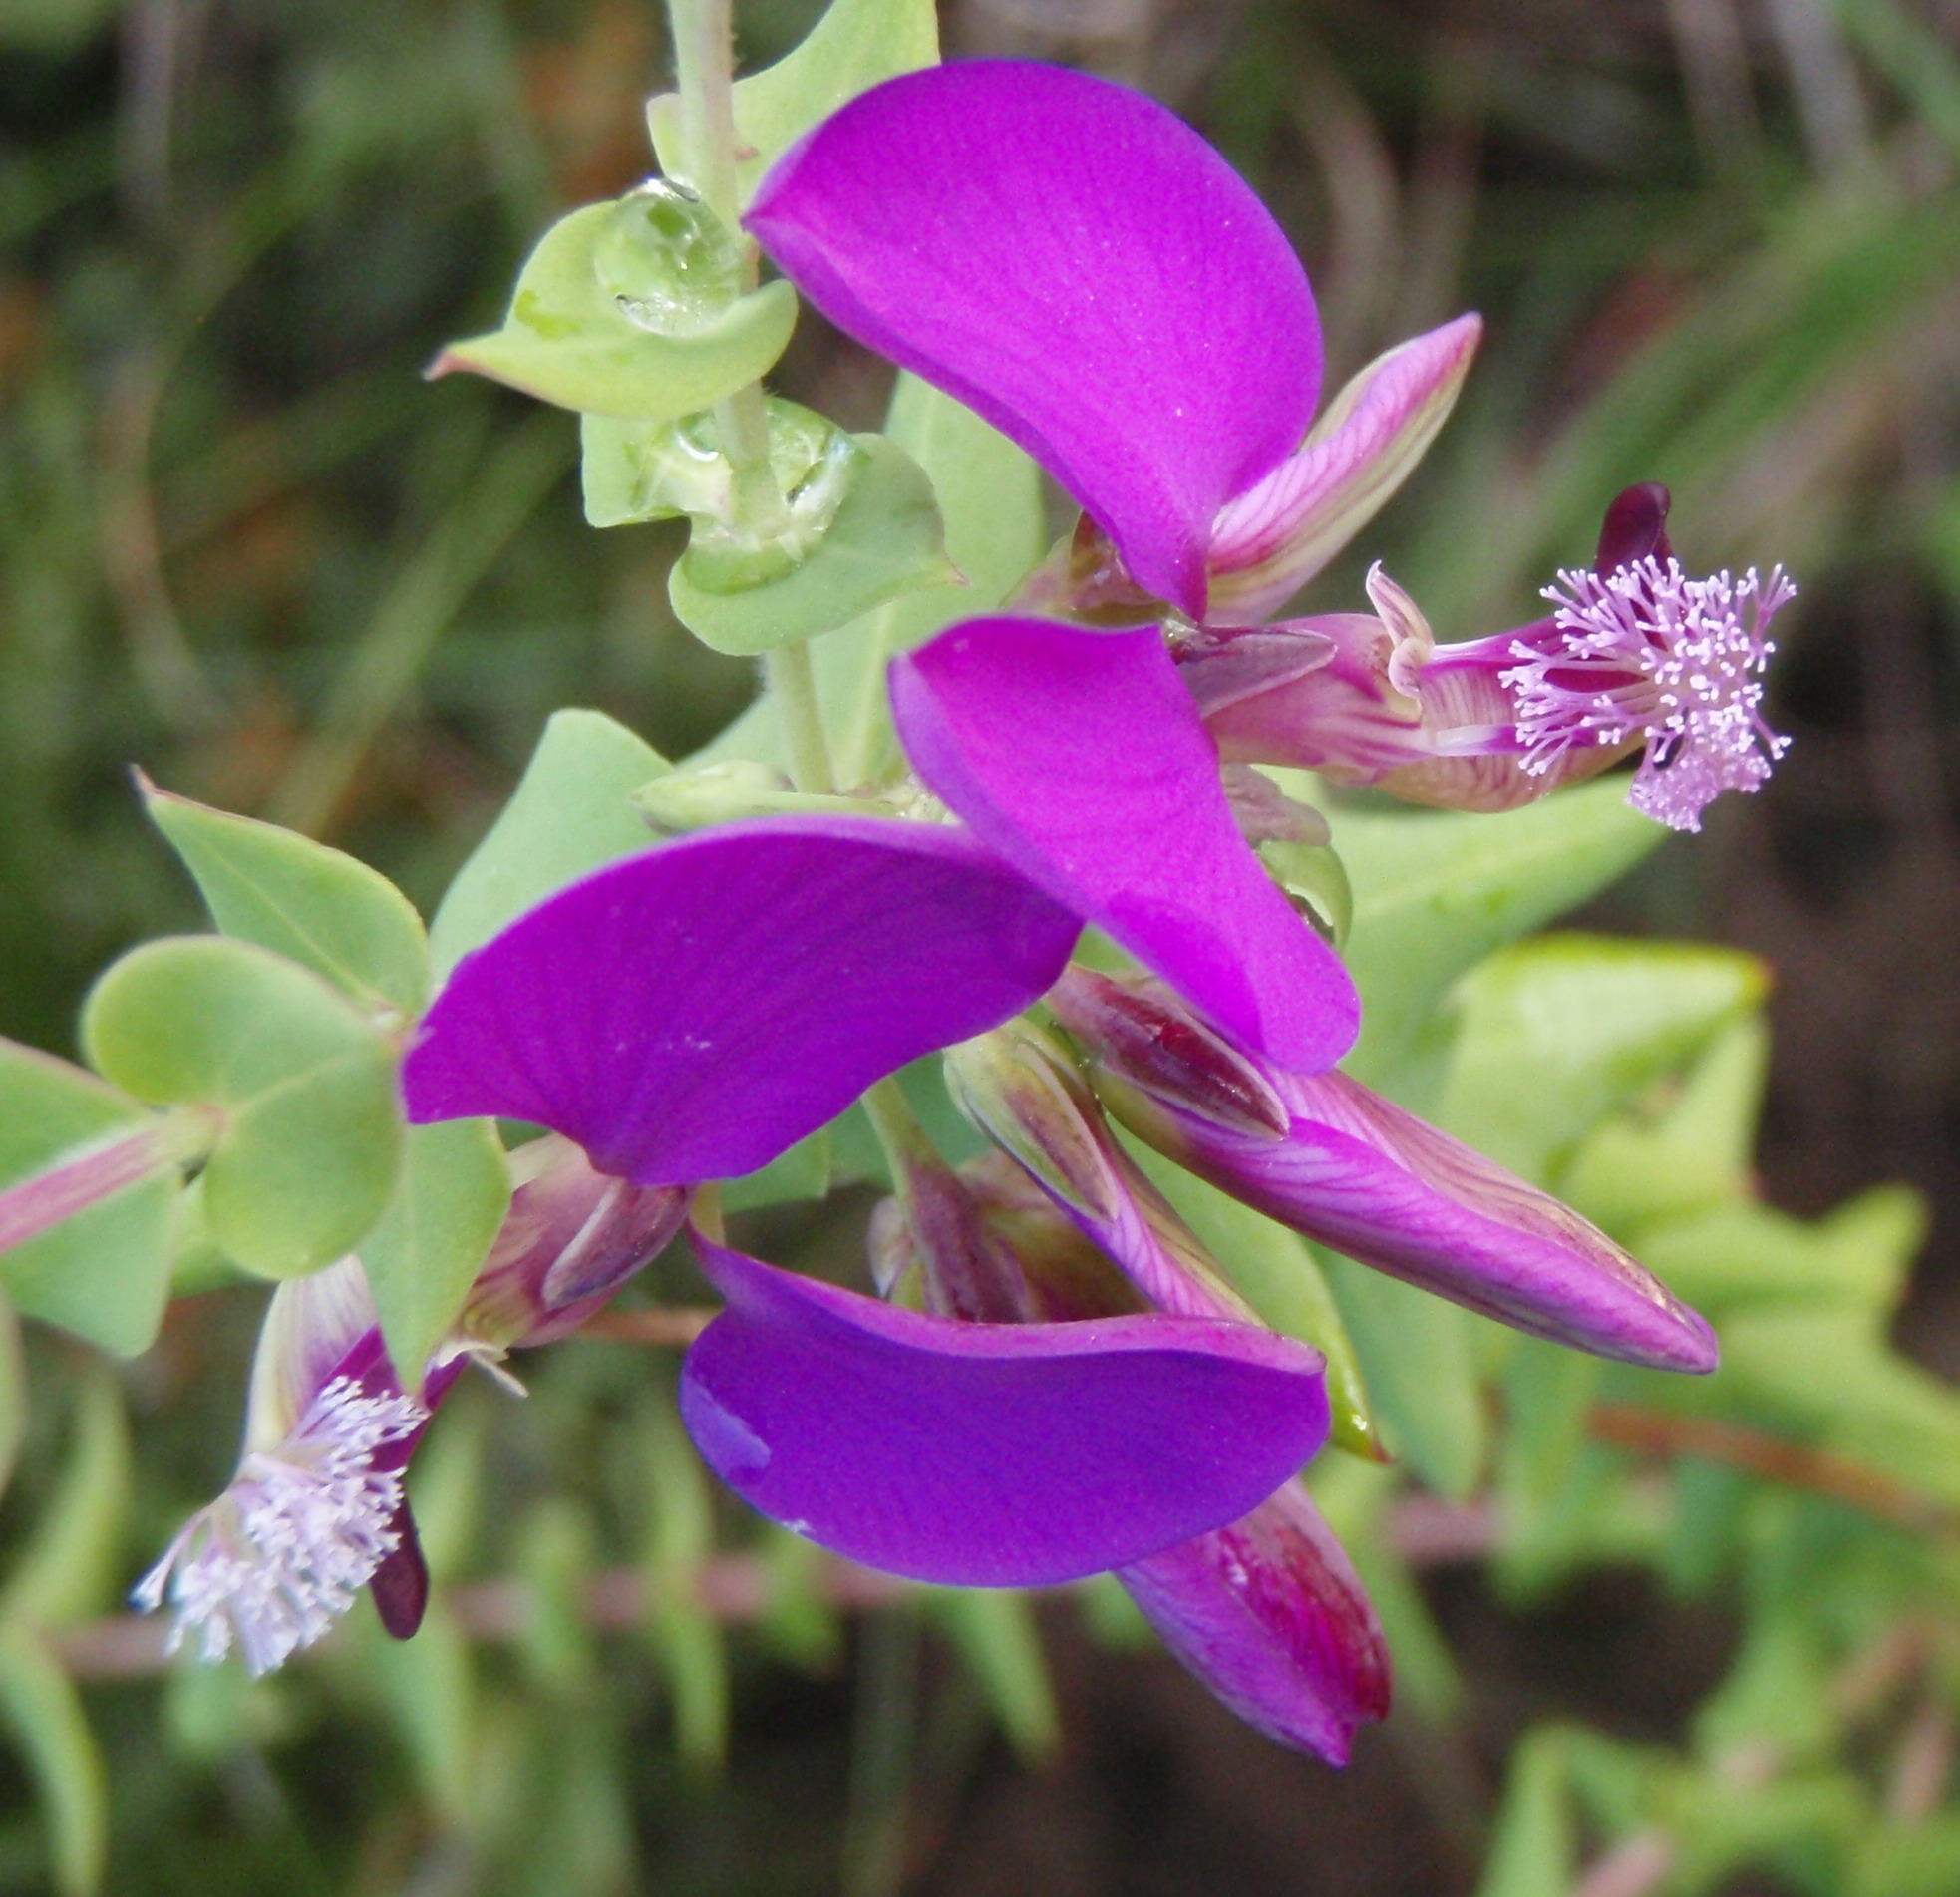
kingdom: Plantae
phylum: Tracheophyta
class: Magnoliopsida
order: Fabales
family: Polygalaceae
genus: Polygala
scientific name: Polygala fruticosa
